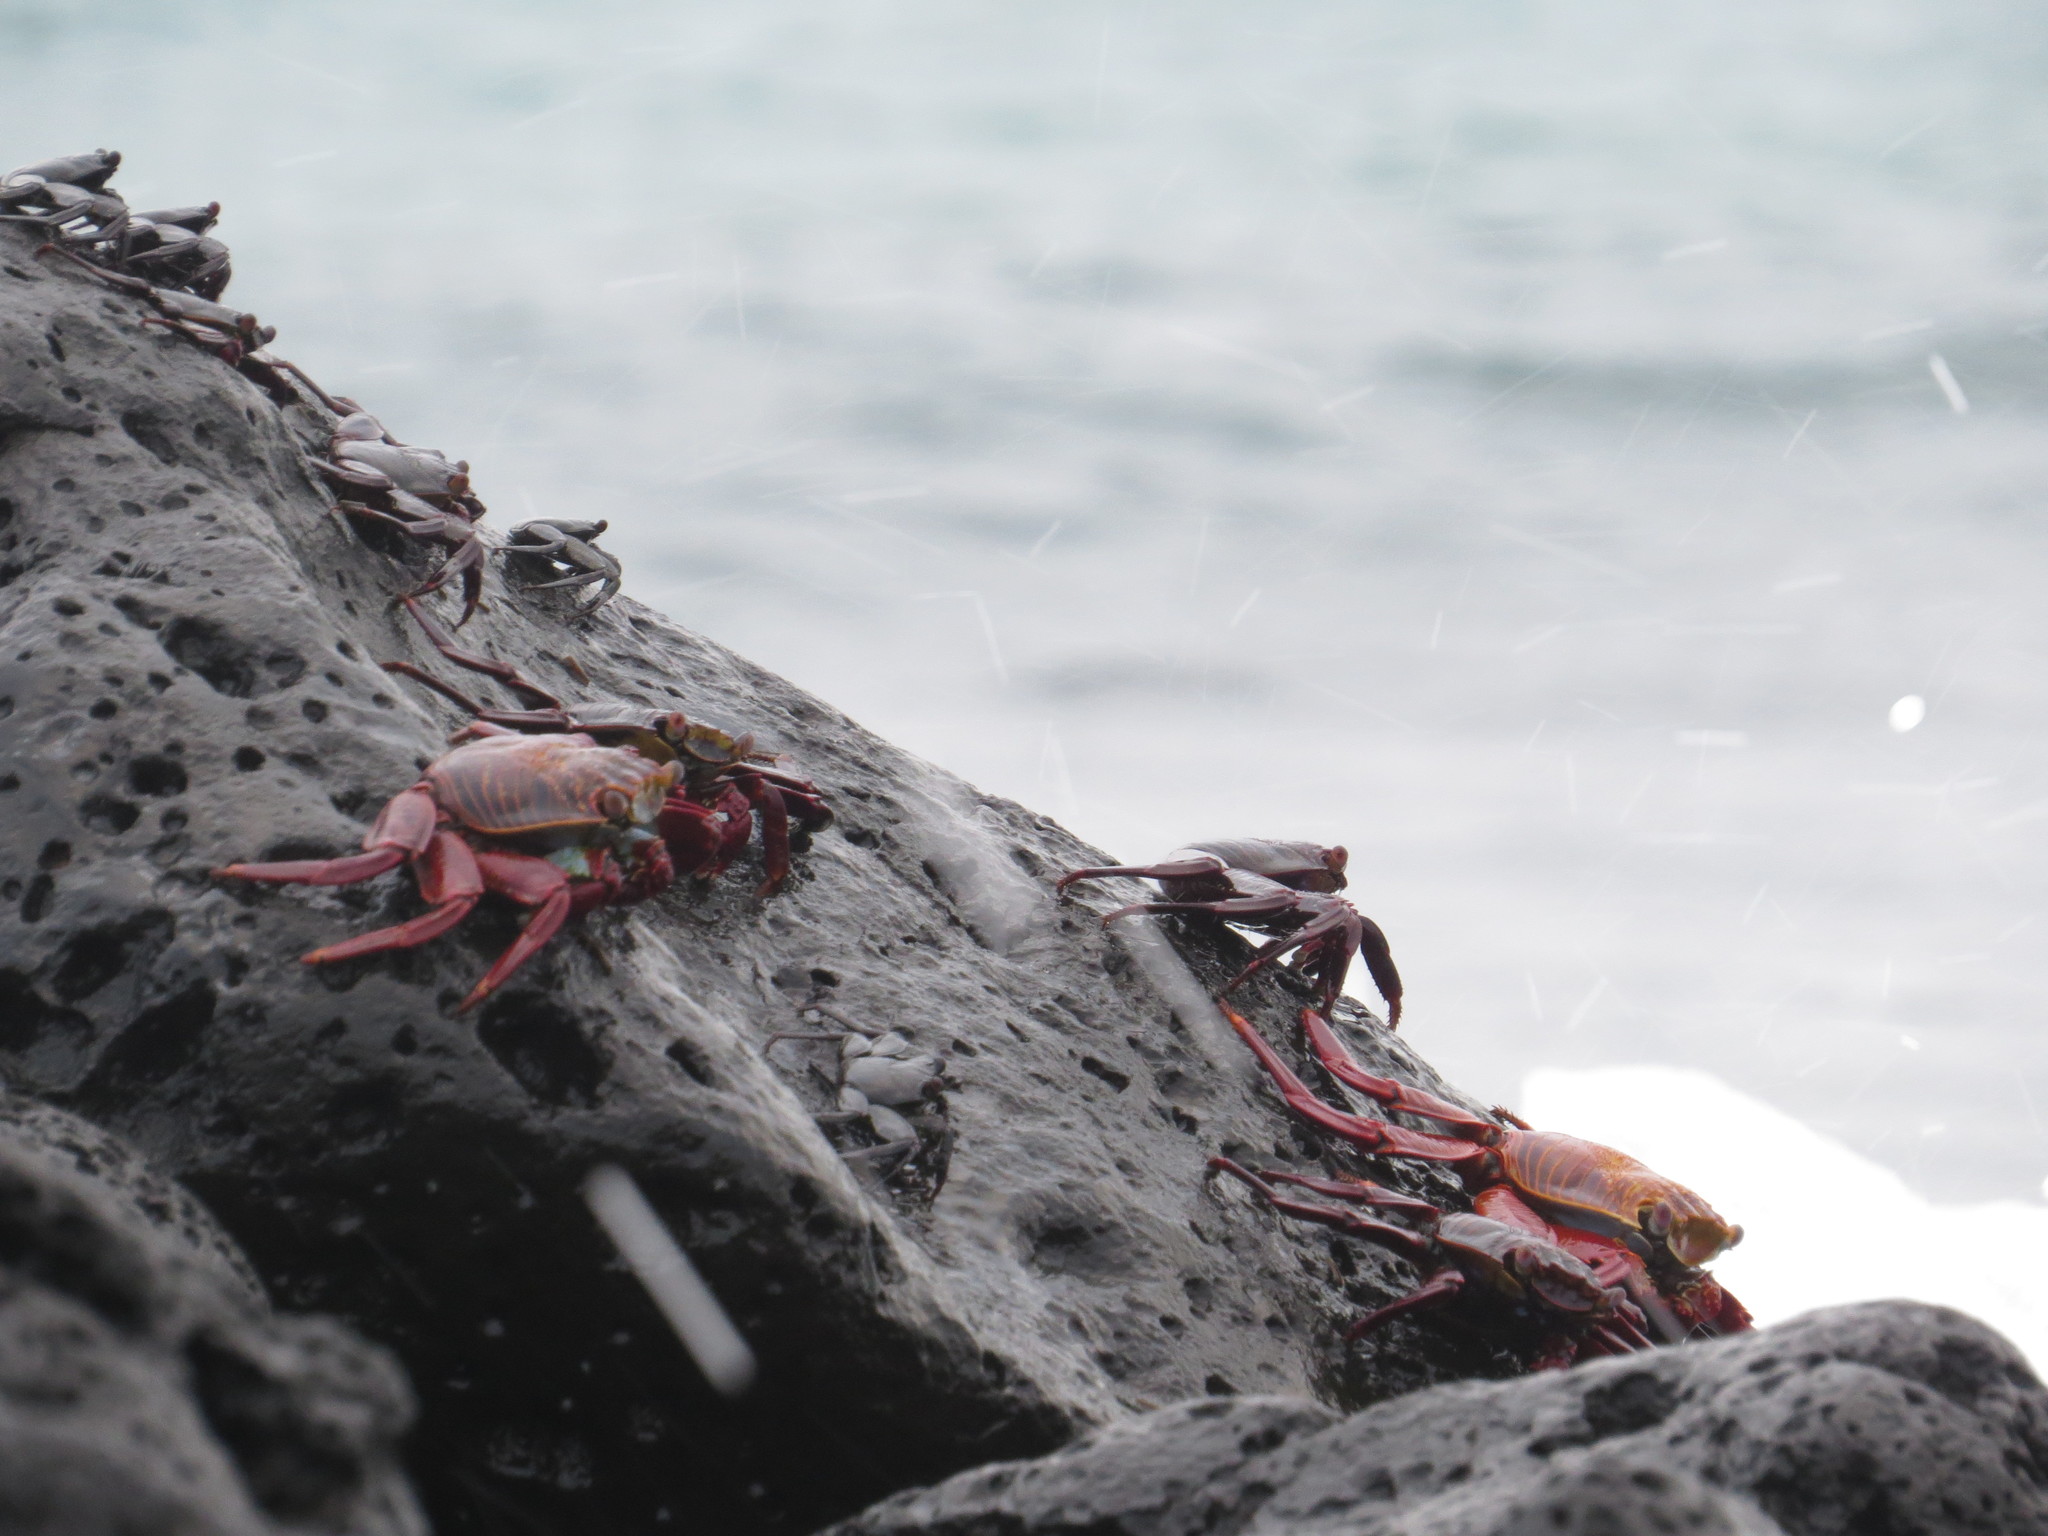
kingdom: Animalia
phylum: Arthropoda
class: Malacostraca
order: Decapoda
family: Grapsidae
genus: Grapsus
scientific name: Grapsus grapsus
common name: Sally lightfoot
